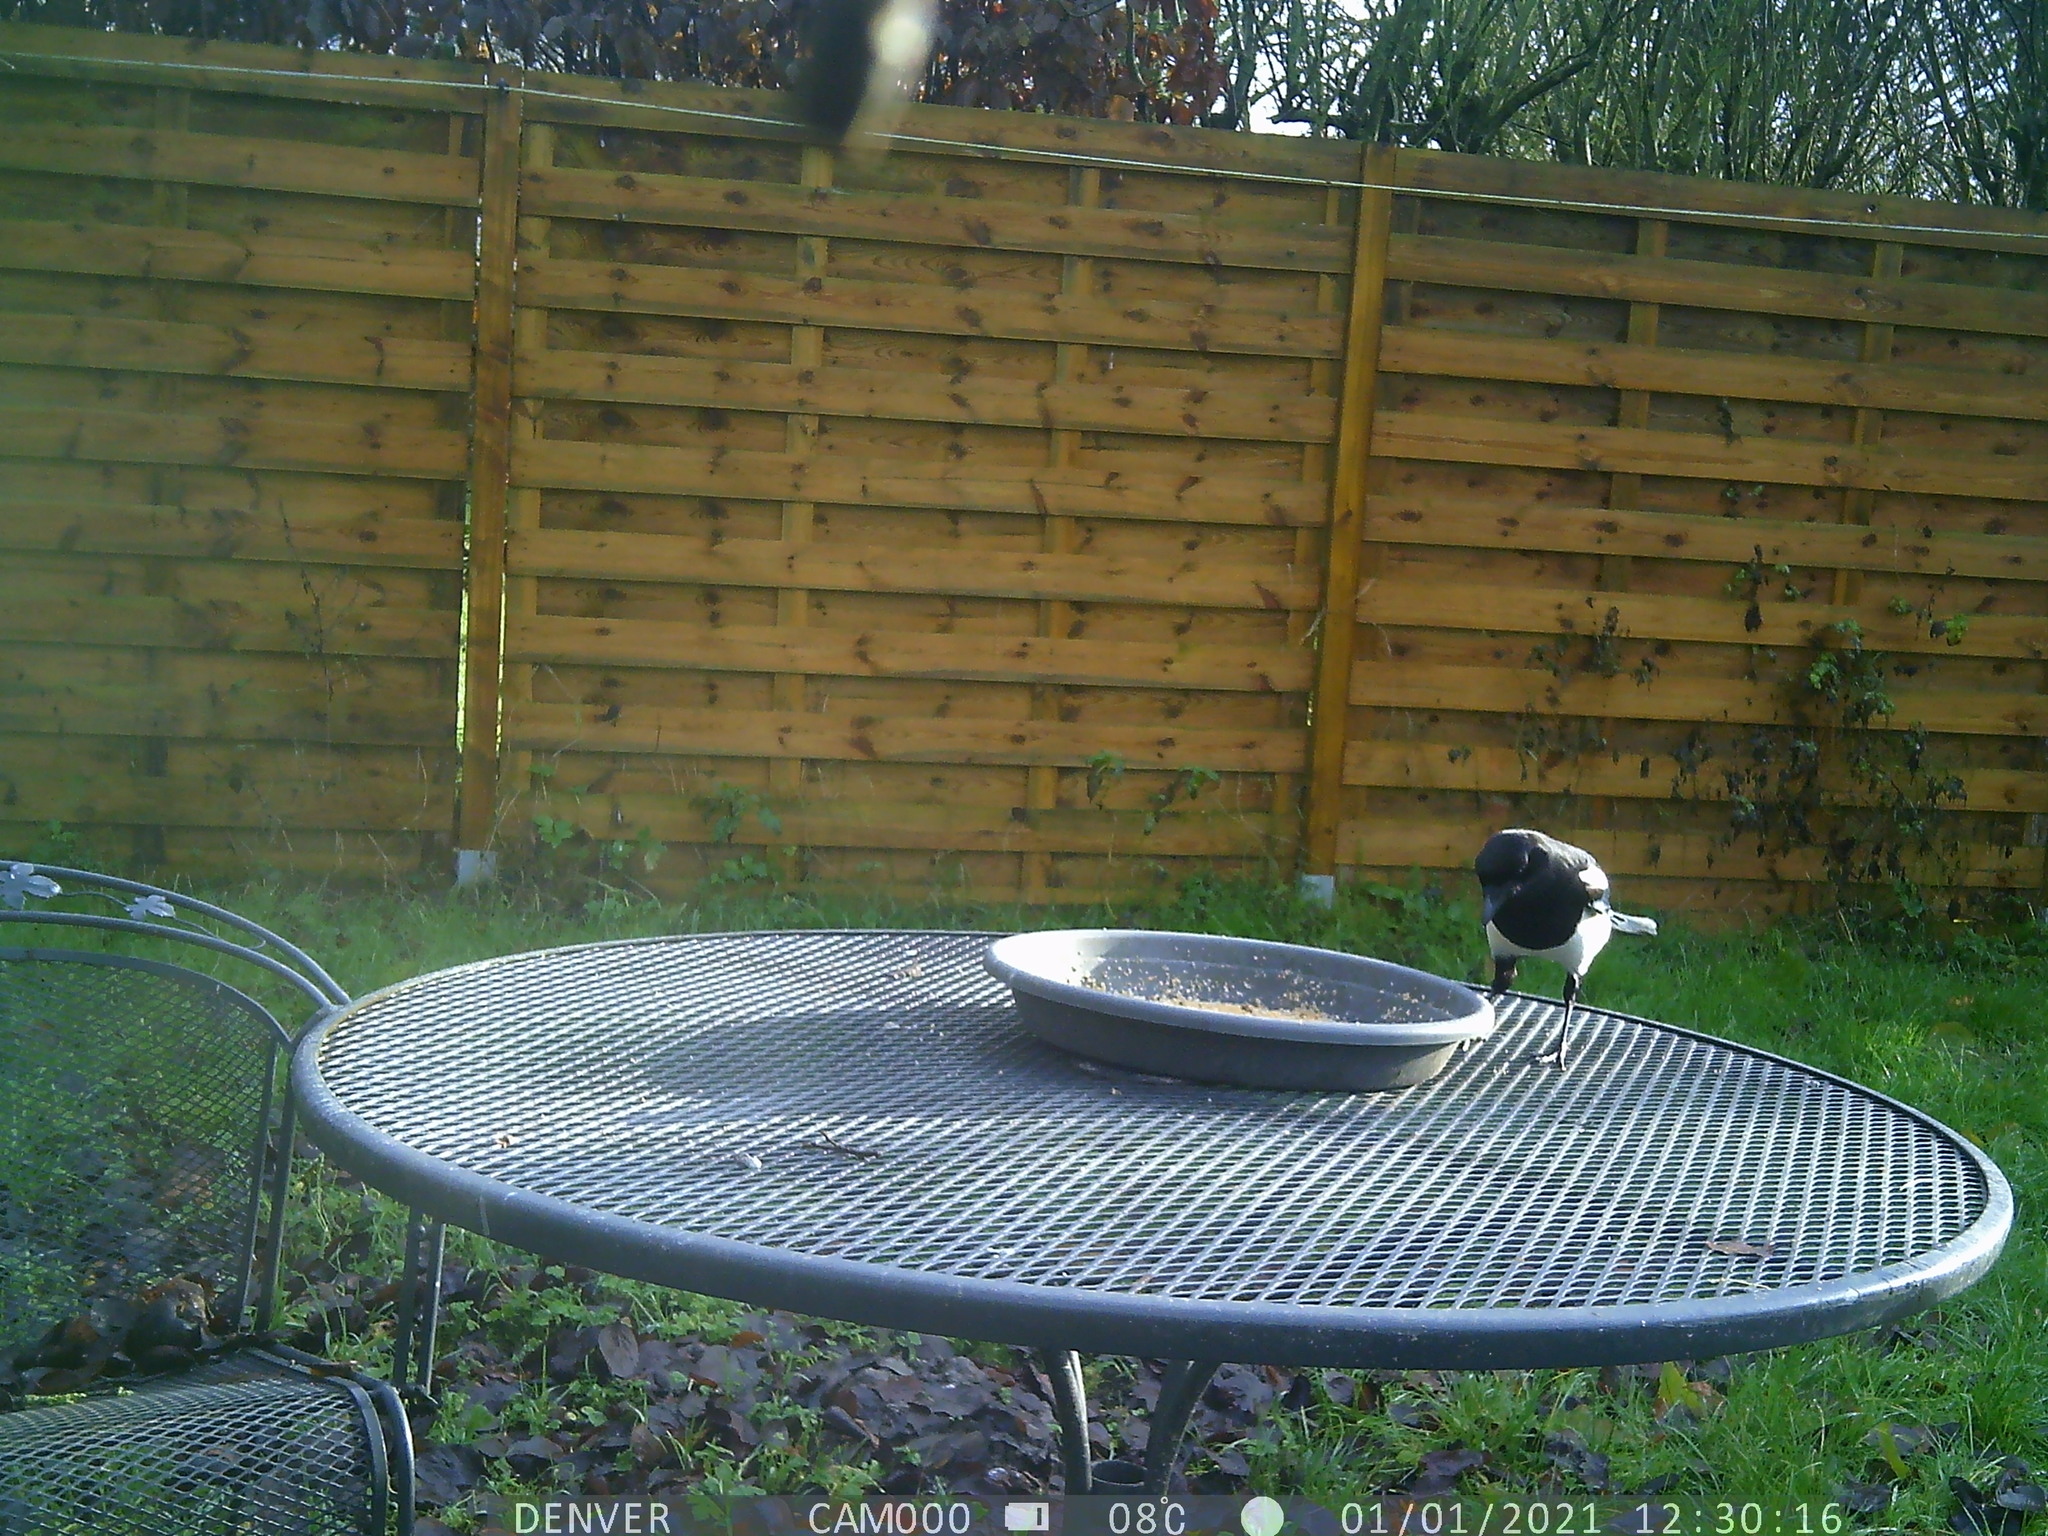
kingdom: Animalia
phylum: Chordata
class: Aves
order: Passeriformes
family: Corvidae
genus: Pica
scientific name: Pica pica
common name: Eurasian magpie
